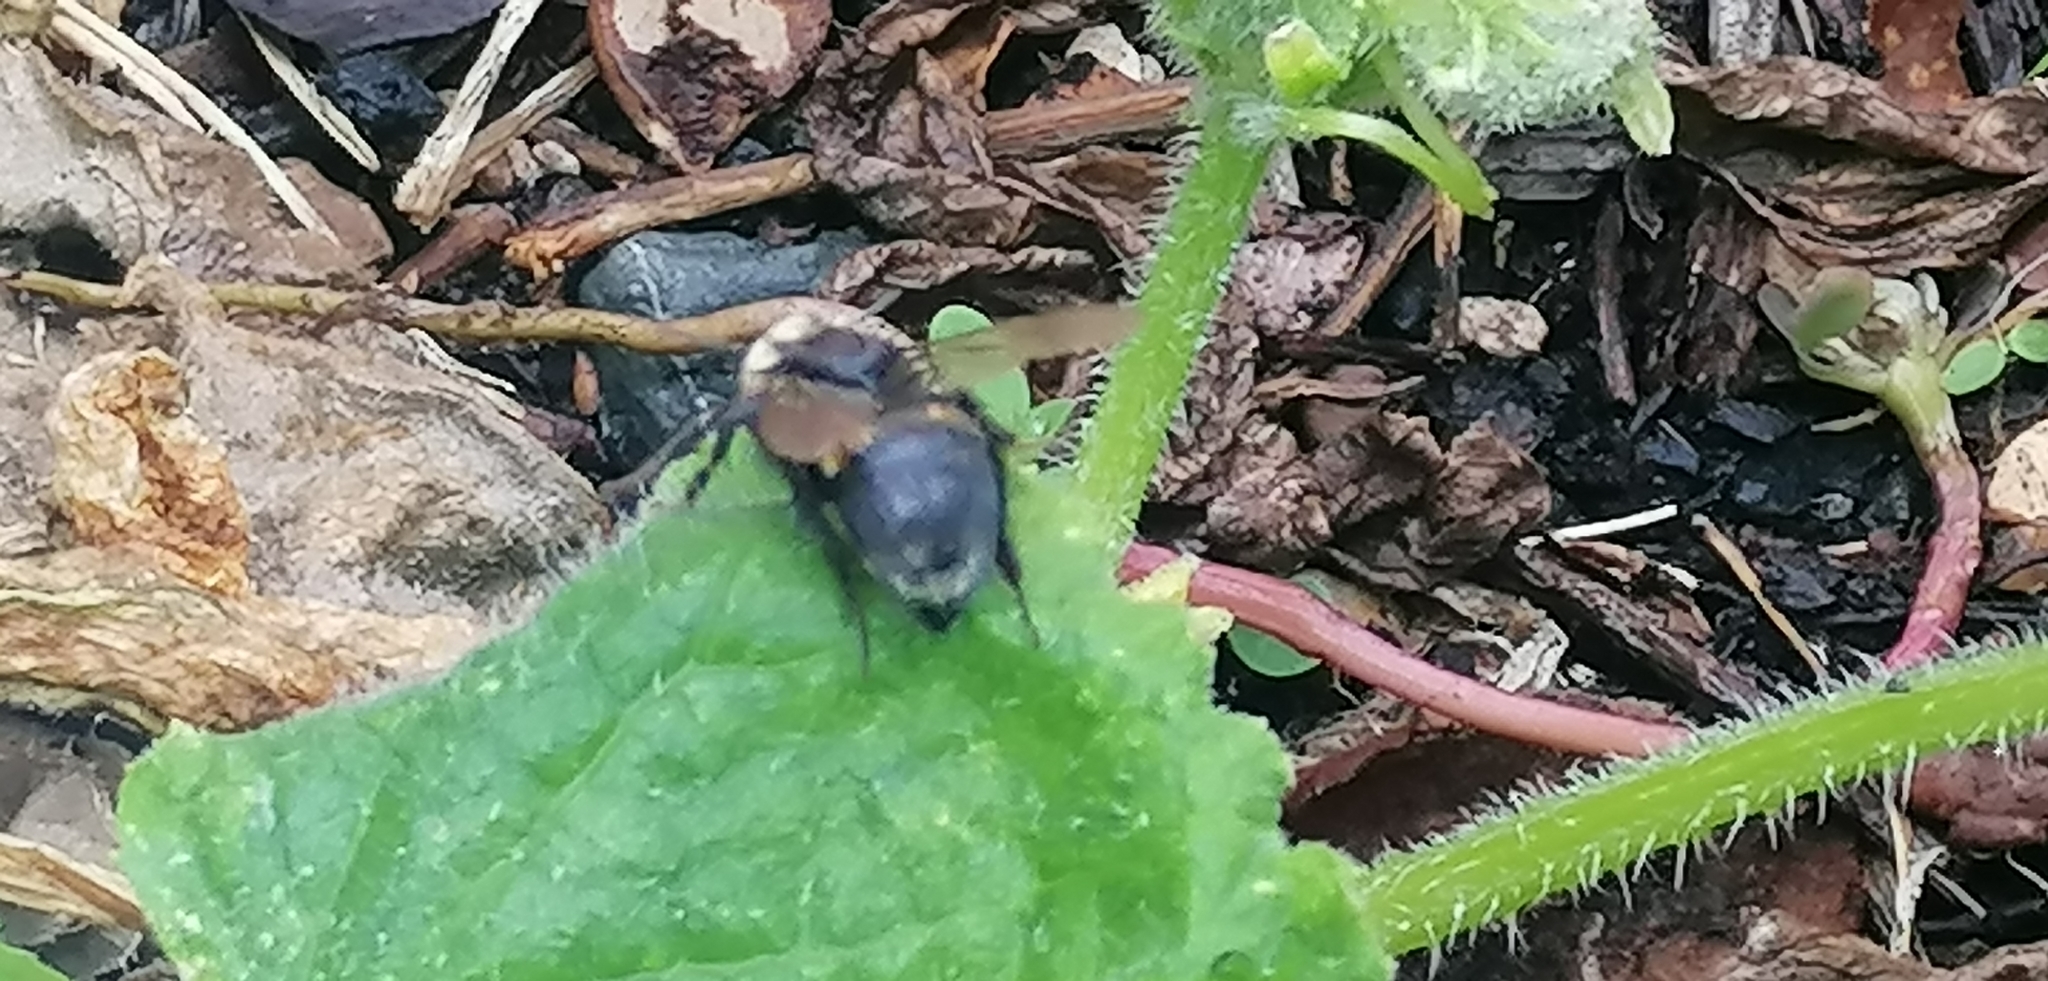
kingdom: Animalia
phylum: Arthropoda
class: Insecta
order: Hymenoptera
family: Apidae
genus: Bombus
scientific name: Bombus terrestris
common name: Buff-tailed bumblebee
